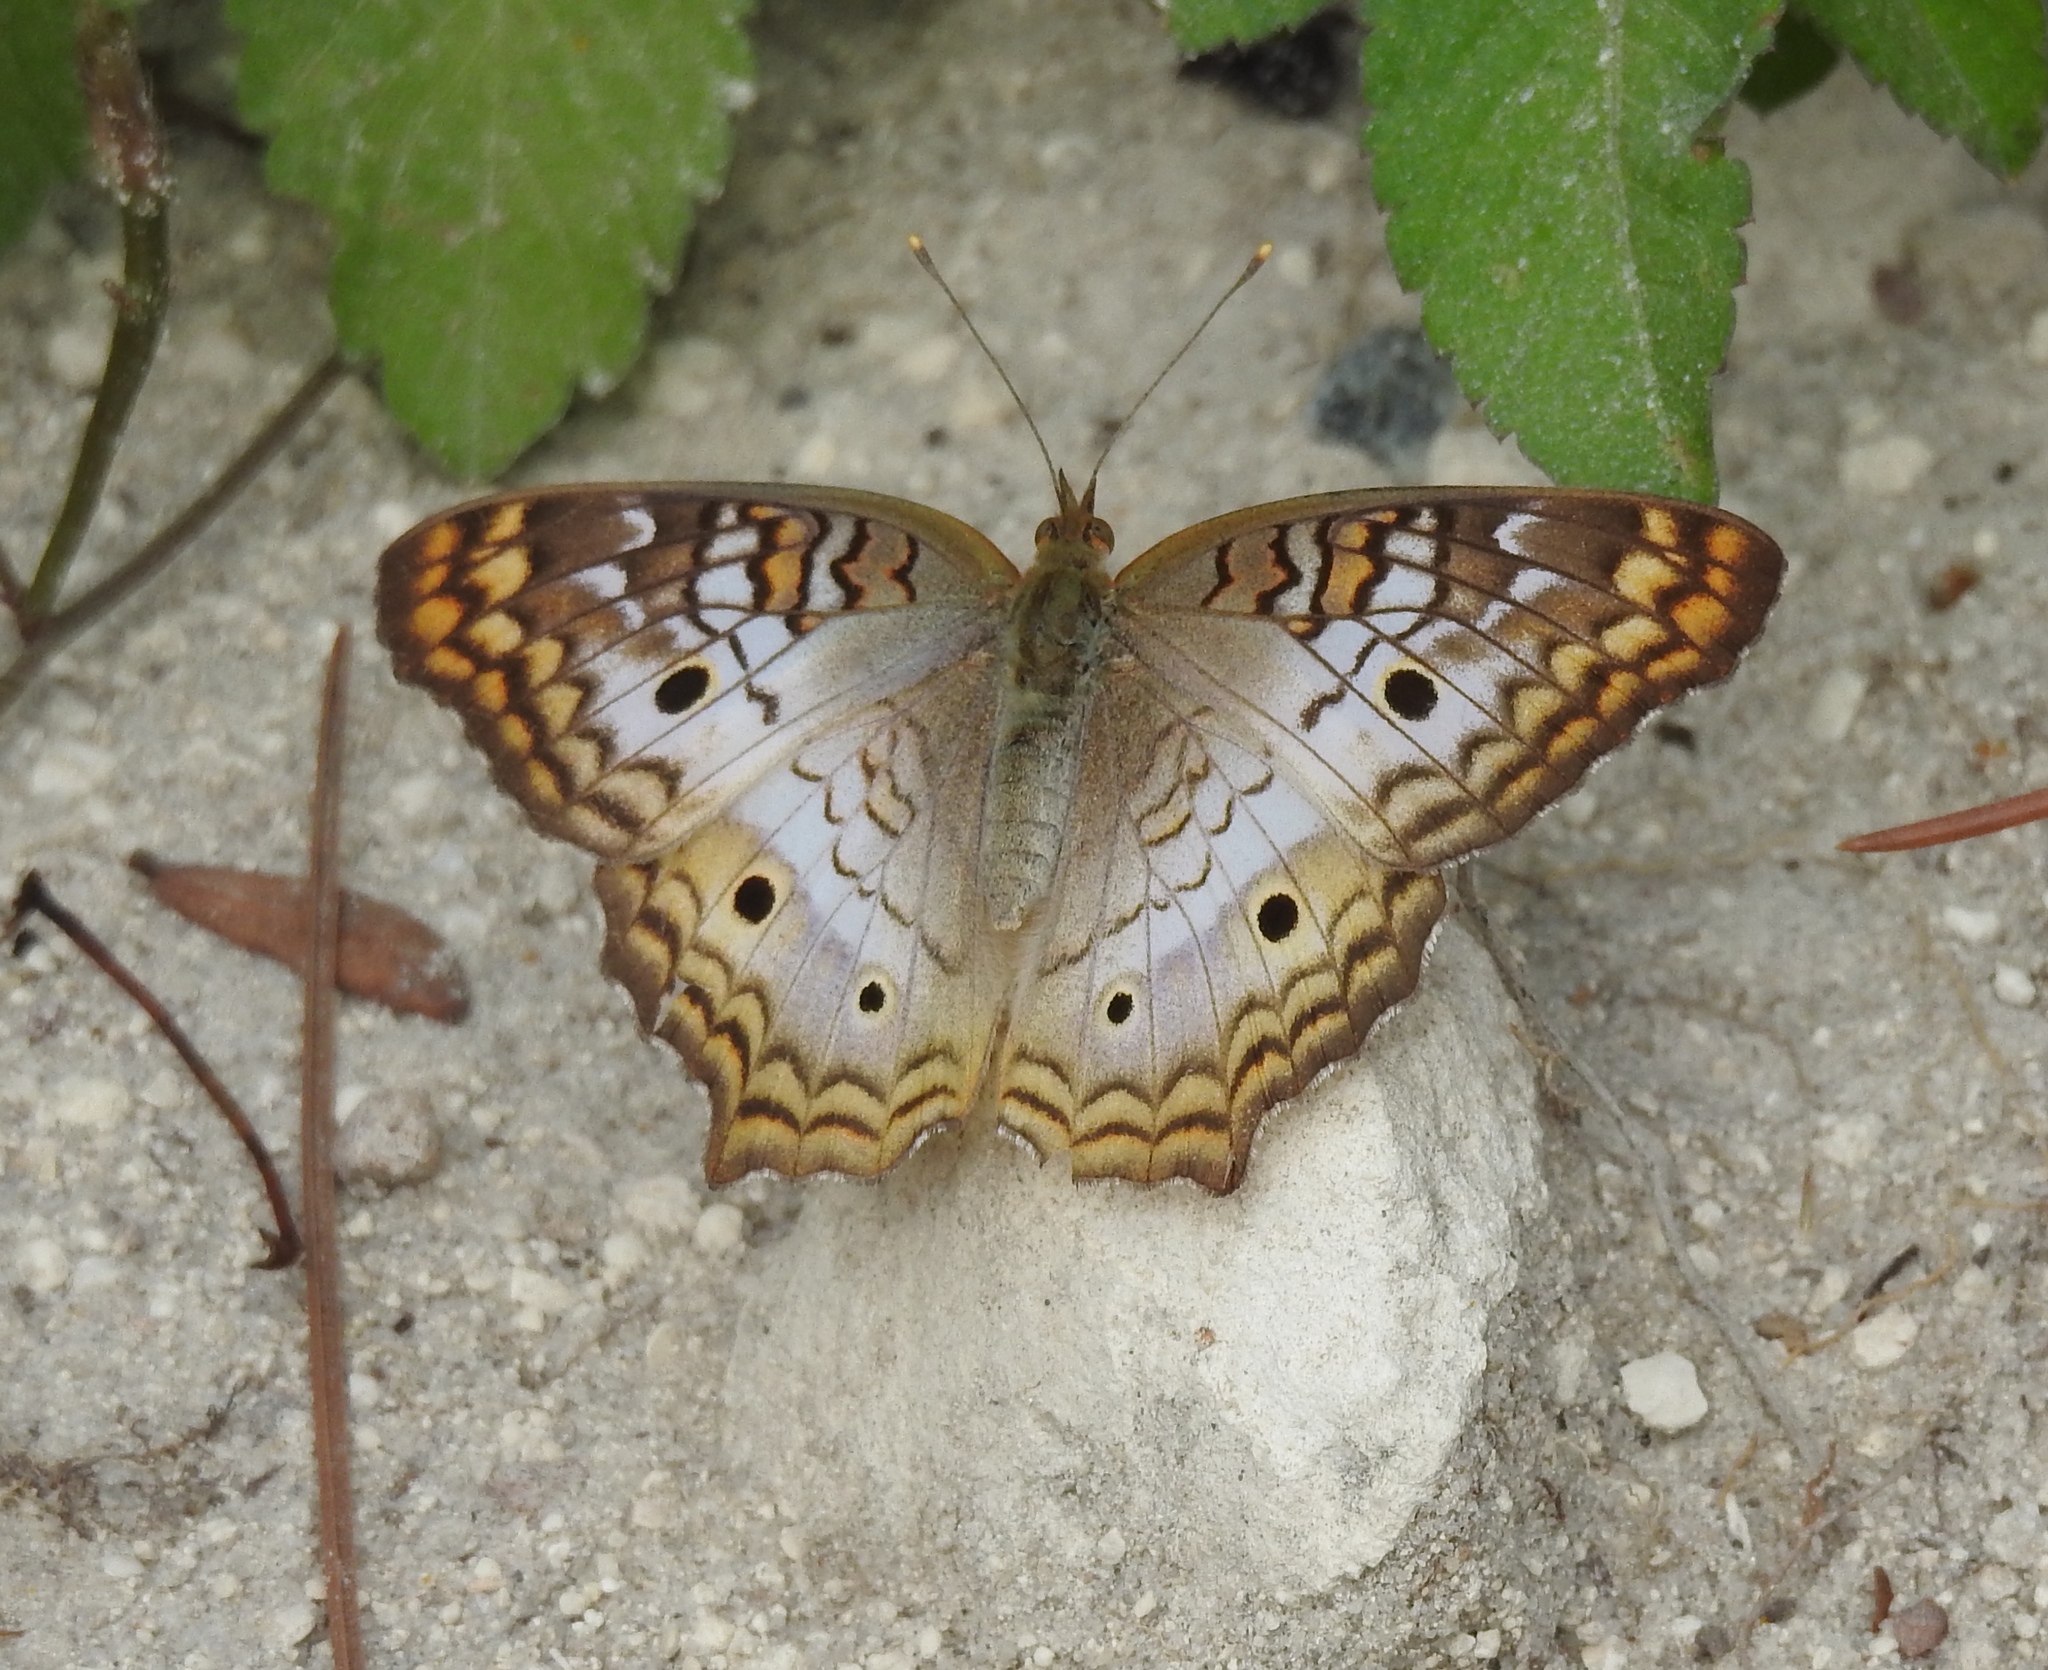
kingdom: Animalia
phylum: Arthropoda
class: Insecta
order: Lepidoptera
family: Nymphalidae
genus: Anartia
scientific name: Anartia jatrophae
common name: White peacock
